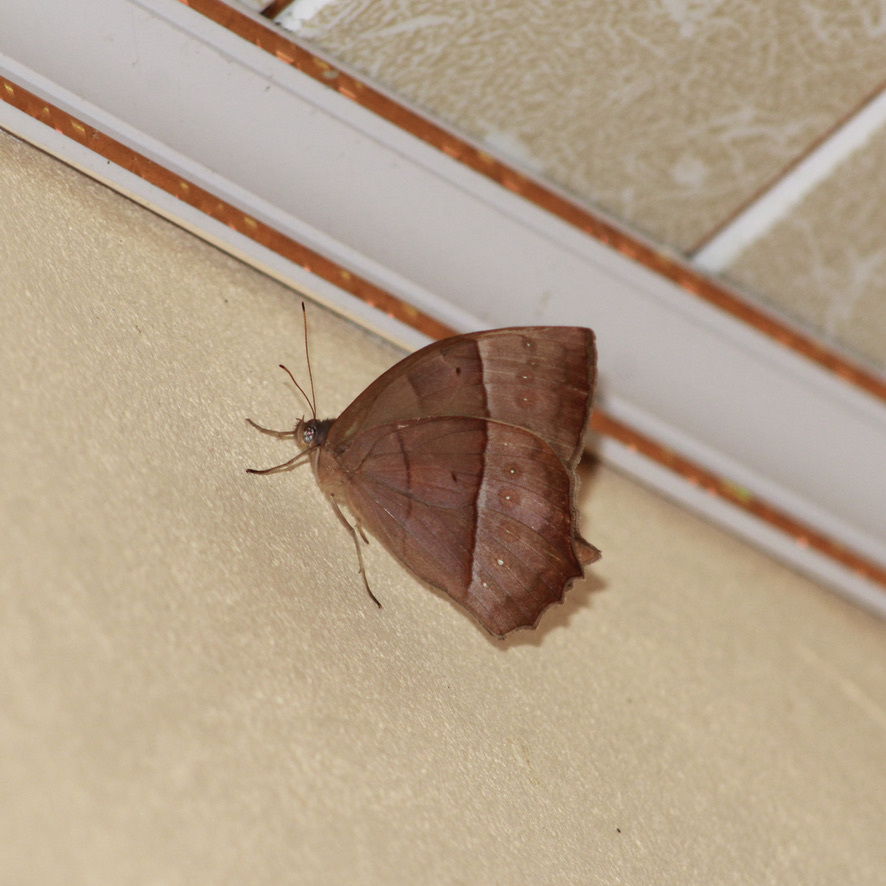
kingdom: Animalia
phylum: Arthropoda
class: Insecta
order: Lepidoptera
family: Nymphalidae
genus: Taygetis
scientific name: Taygetis virgilia
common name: Stub-tailed satyr
